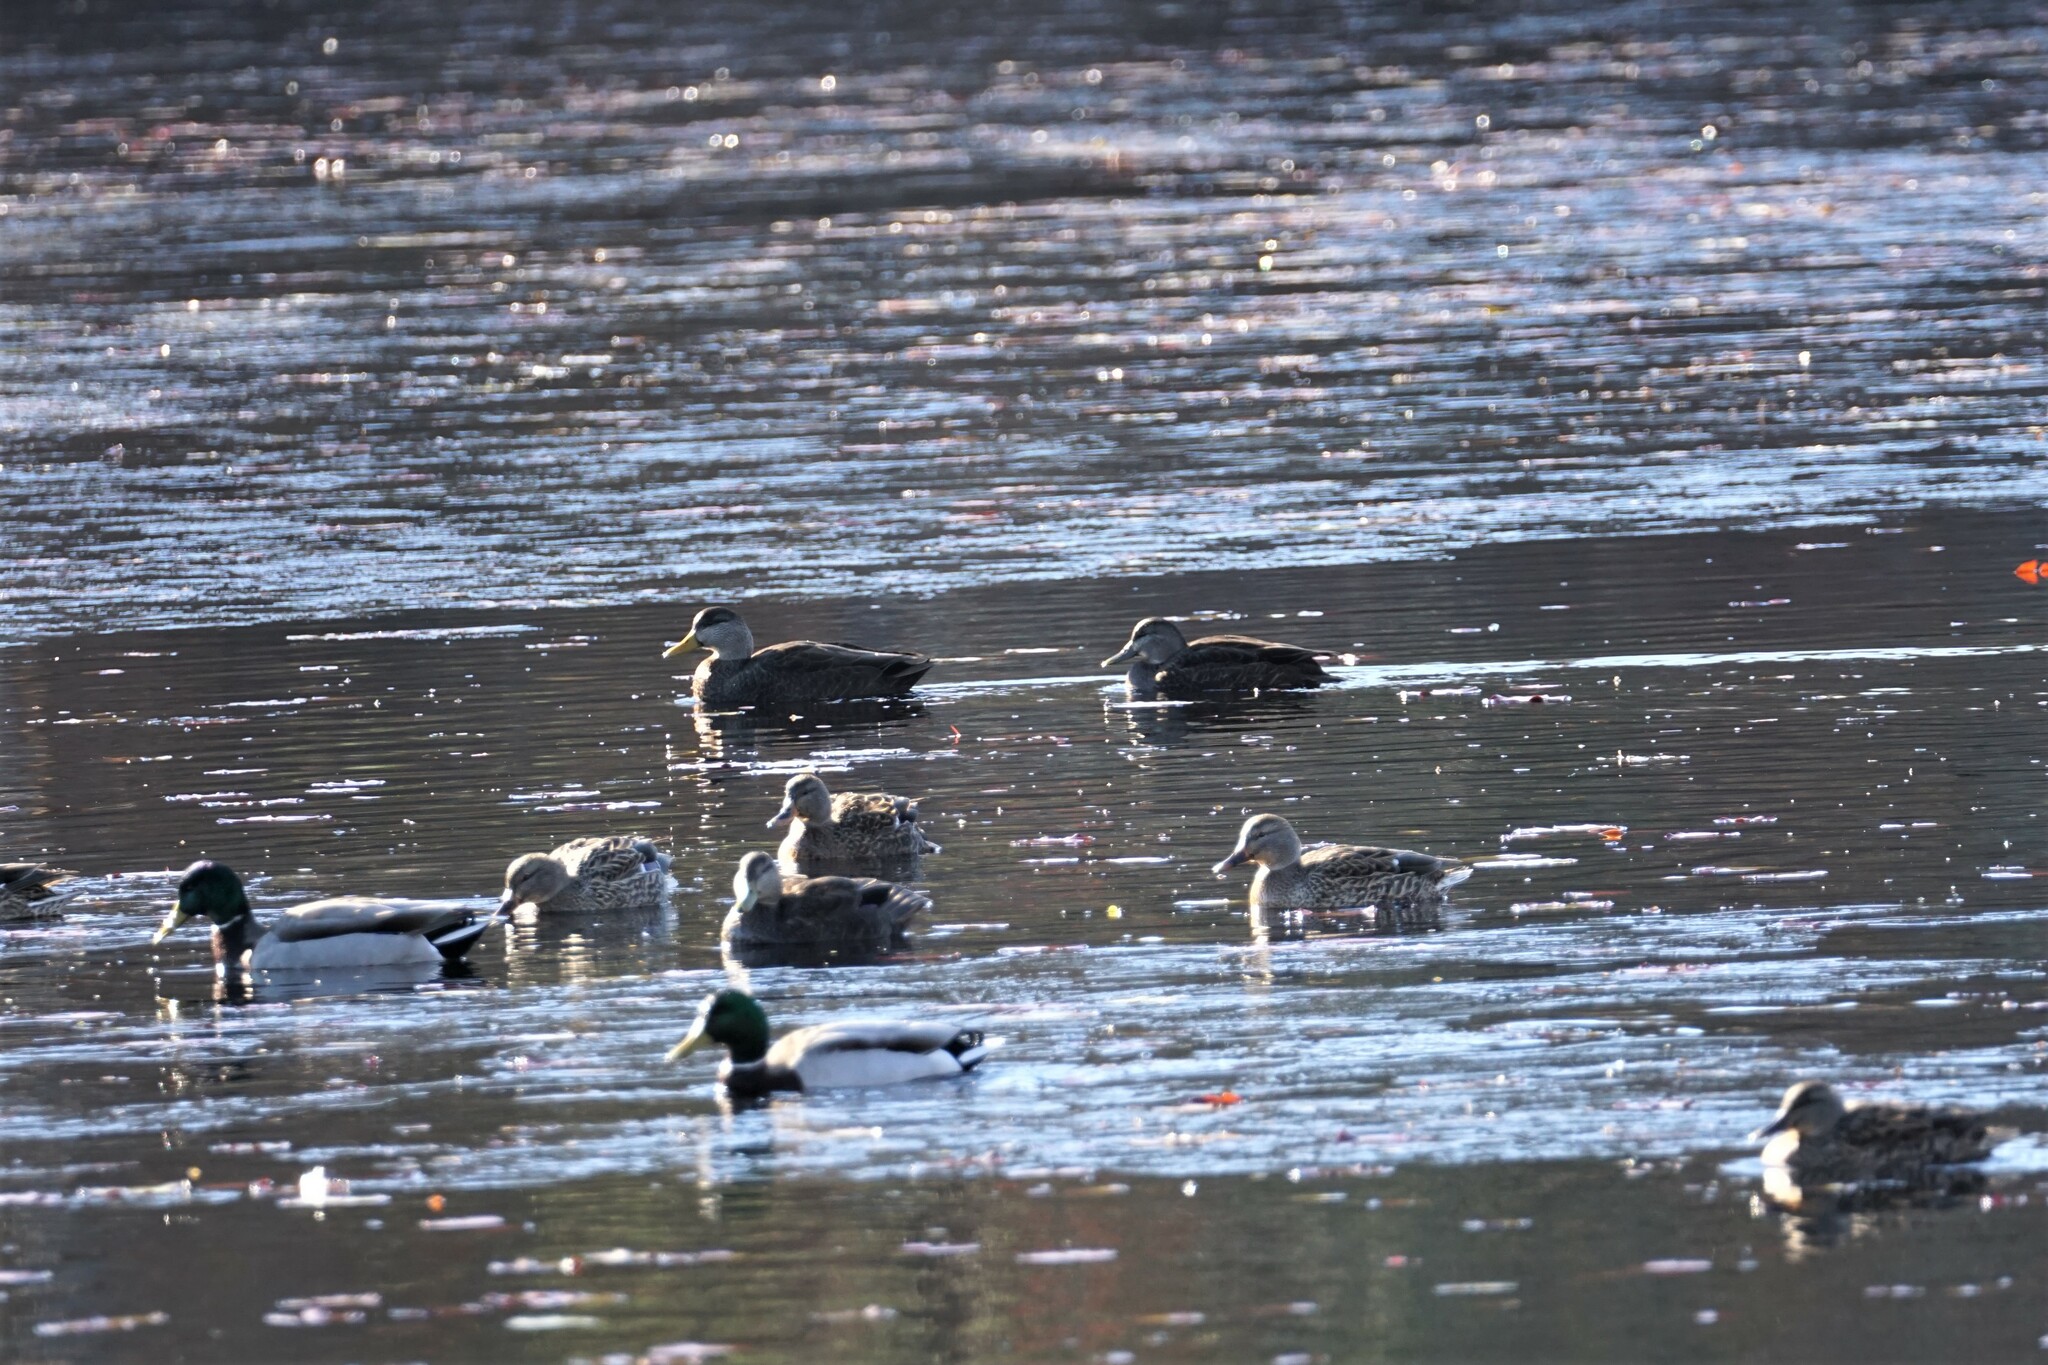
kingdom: Animalia
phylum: Chordata
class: Aves
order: Anseriformes
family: Anatidae
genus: Anas
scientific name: Anas platyrhynchos
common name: Mallard
